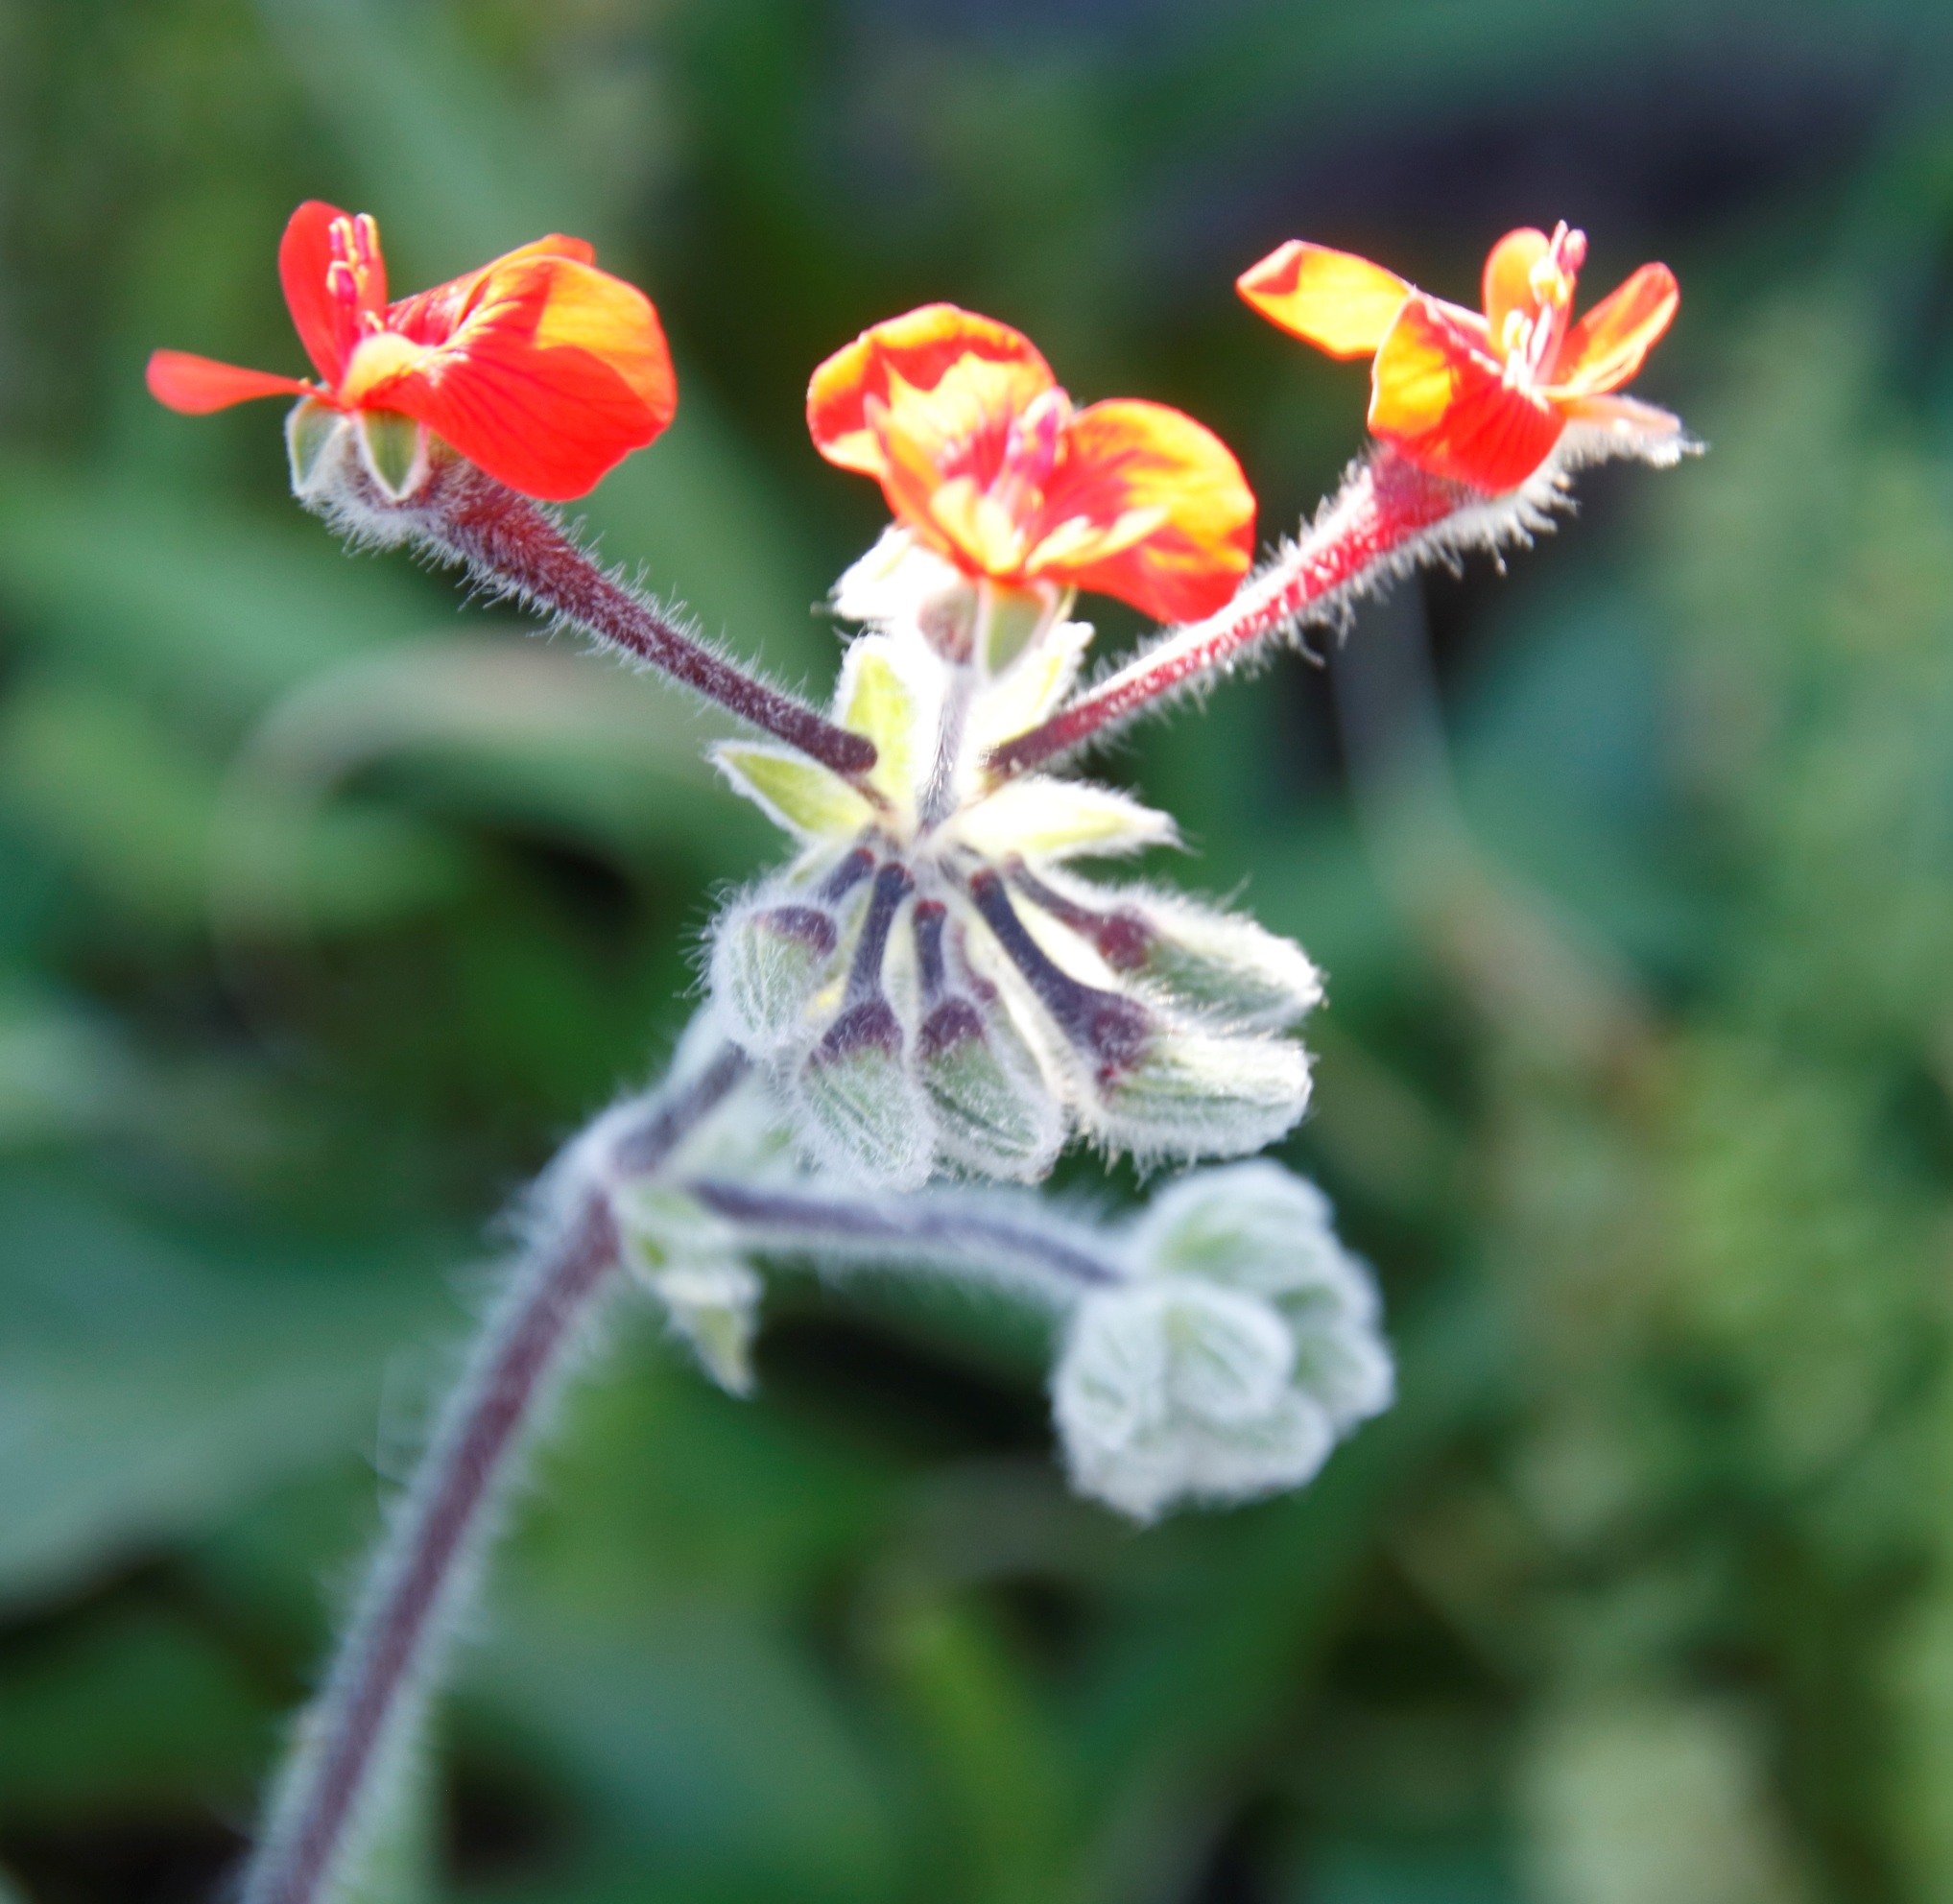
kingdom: Plantae
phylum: Tracheophyta
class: Magnoliopsida
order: Geraniales
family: Geraniaceae
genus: Pelargonium
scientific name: Pelargonium fulgidum
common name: Celandine-leaf pelargonium
